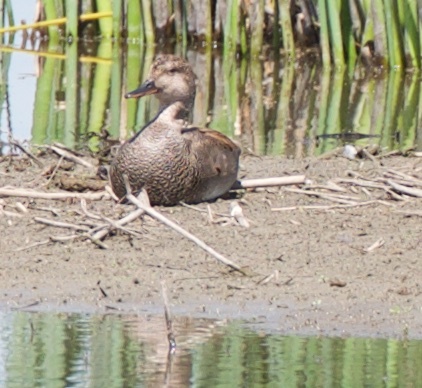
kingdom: Animalia
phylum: Chordata
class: Aves
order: Anseriformes
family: Anatidae
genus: Mareca
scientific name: Mareca strepera
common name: Gadwall
